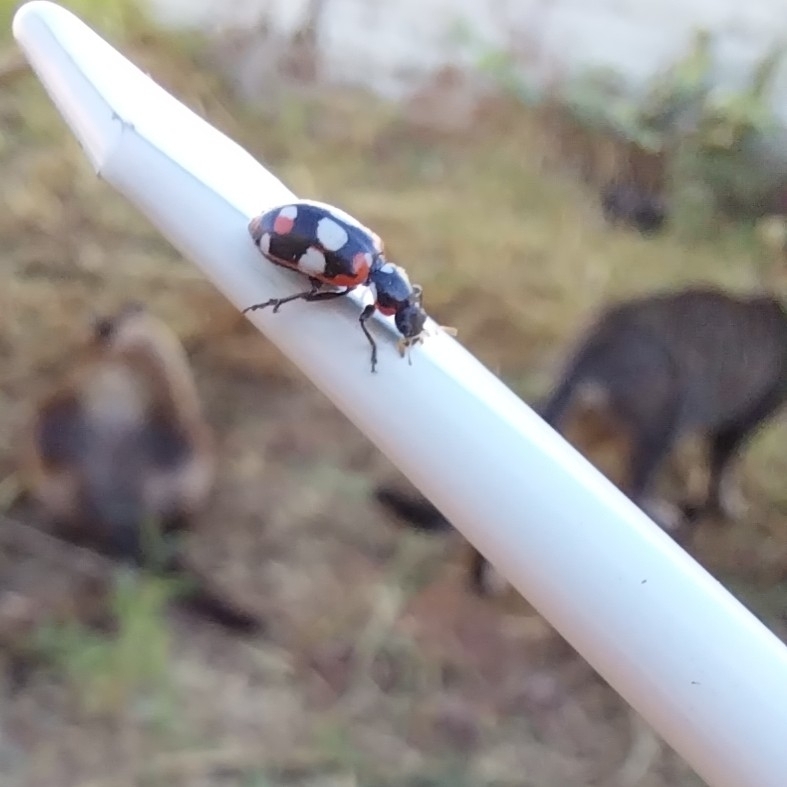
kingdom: Animalia
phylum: Arthropoda
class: Insecta
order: Coleoptera
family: Coccinellidae
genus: Eriopis
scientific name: Eriopis connexa
